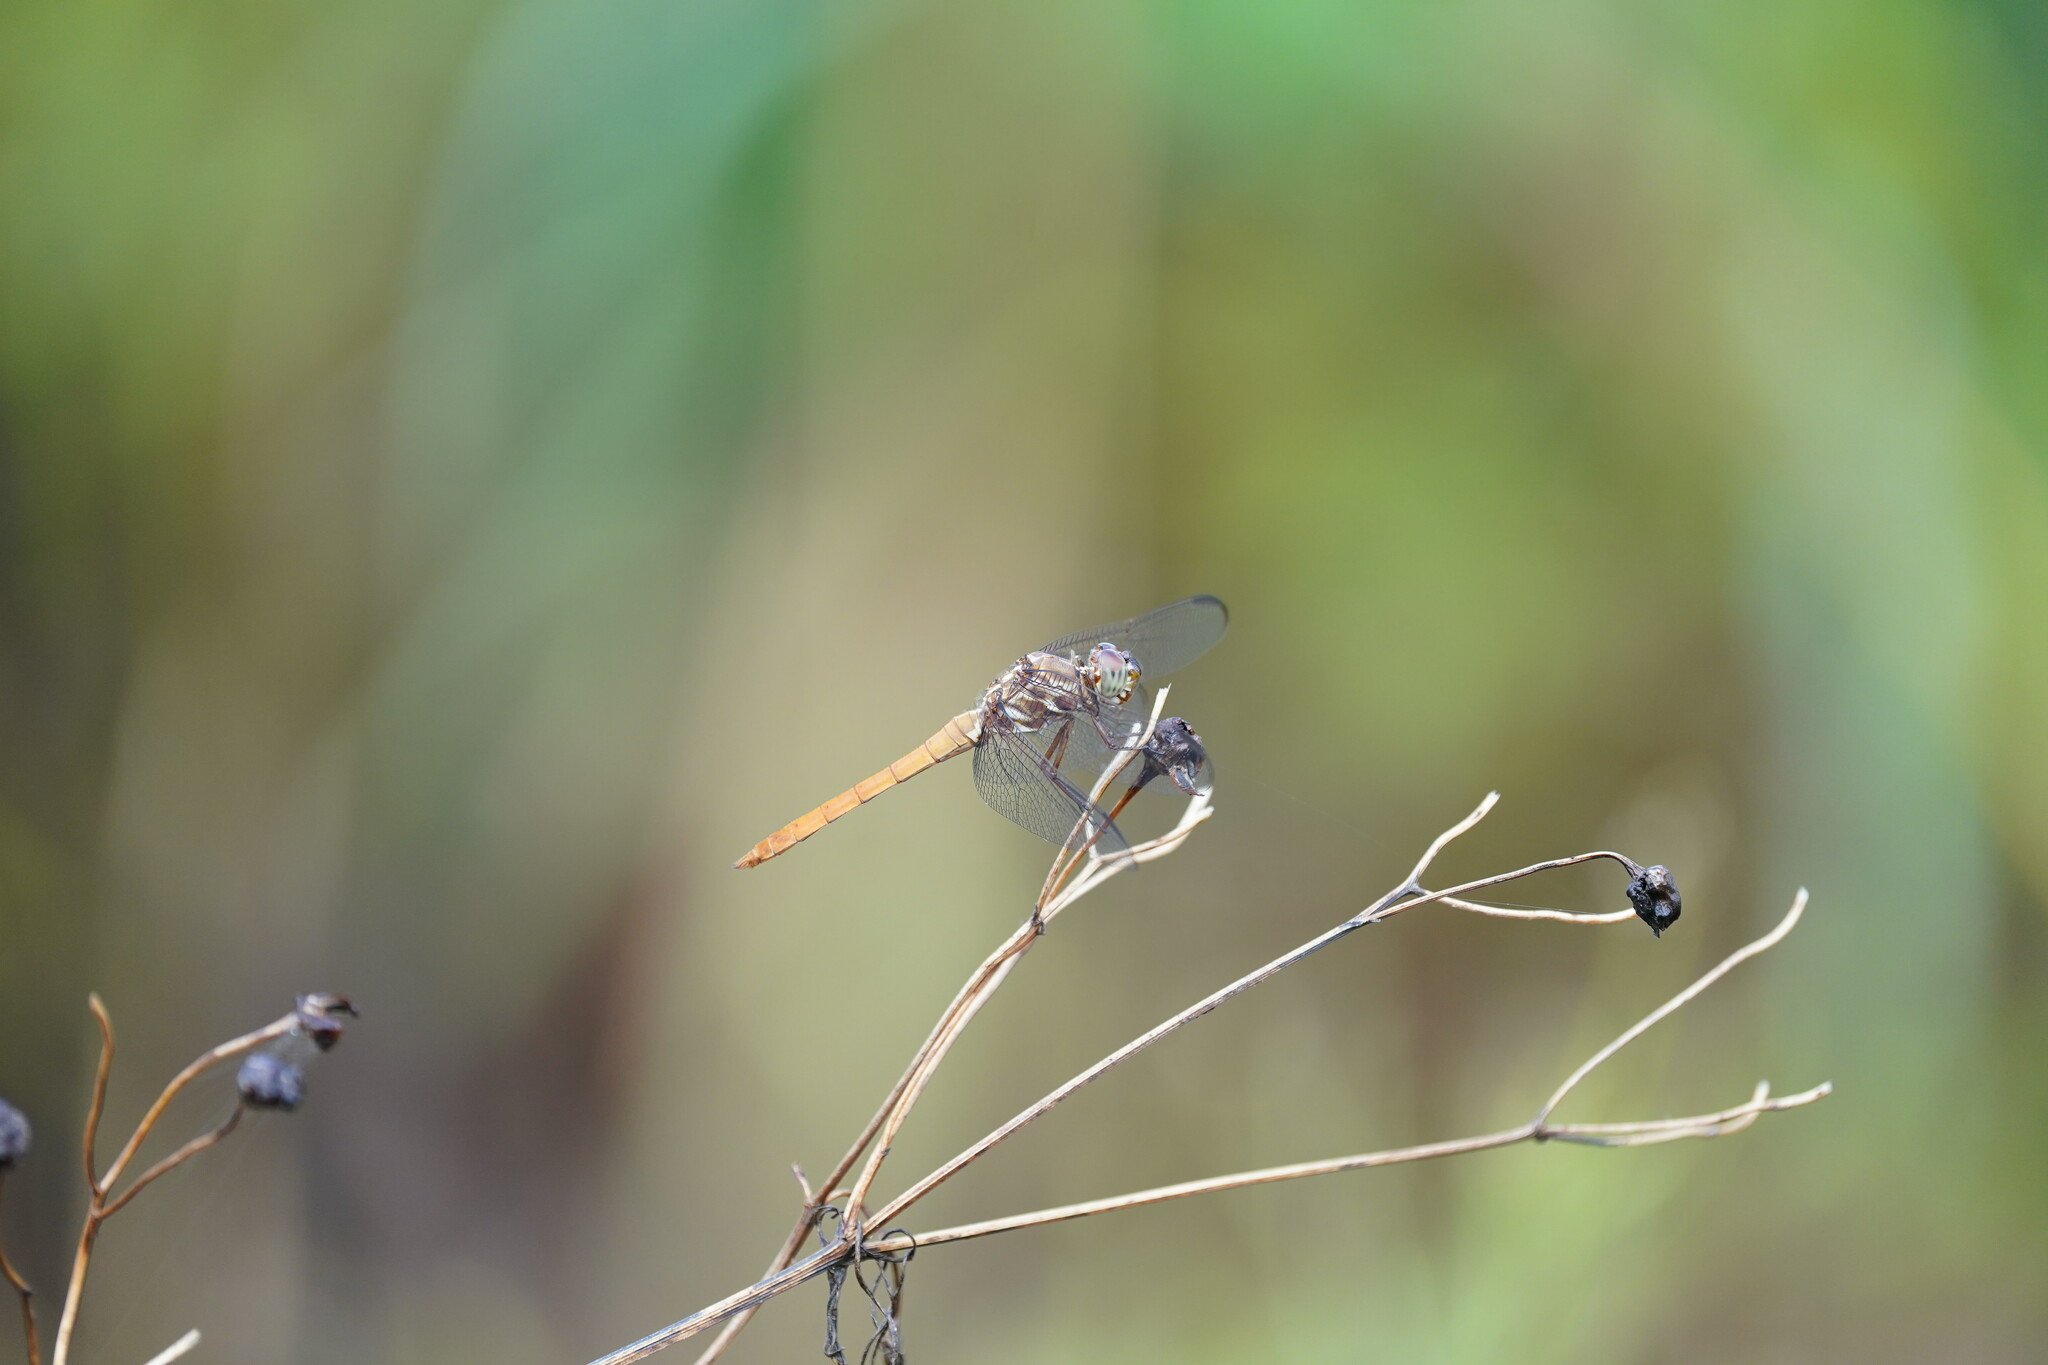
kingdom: Animalia
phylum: Arthropoda
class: Insecta
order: Odonata
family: Libellulidae
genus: Orthemis
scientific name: Orthemis ferruginea
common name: Roseate skimmer
